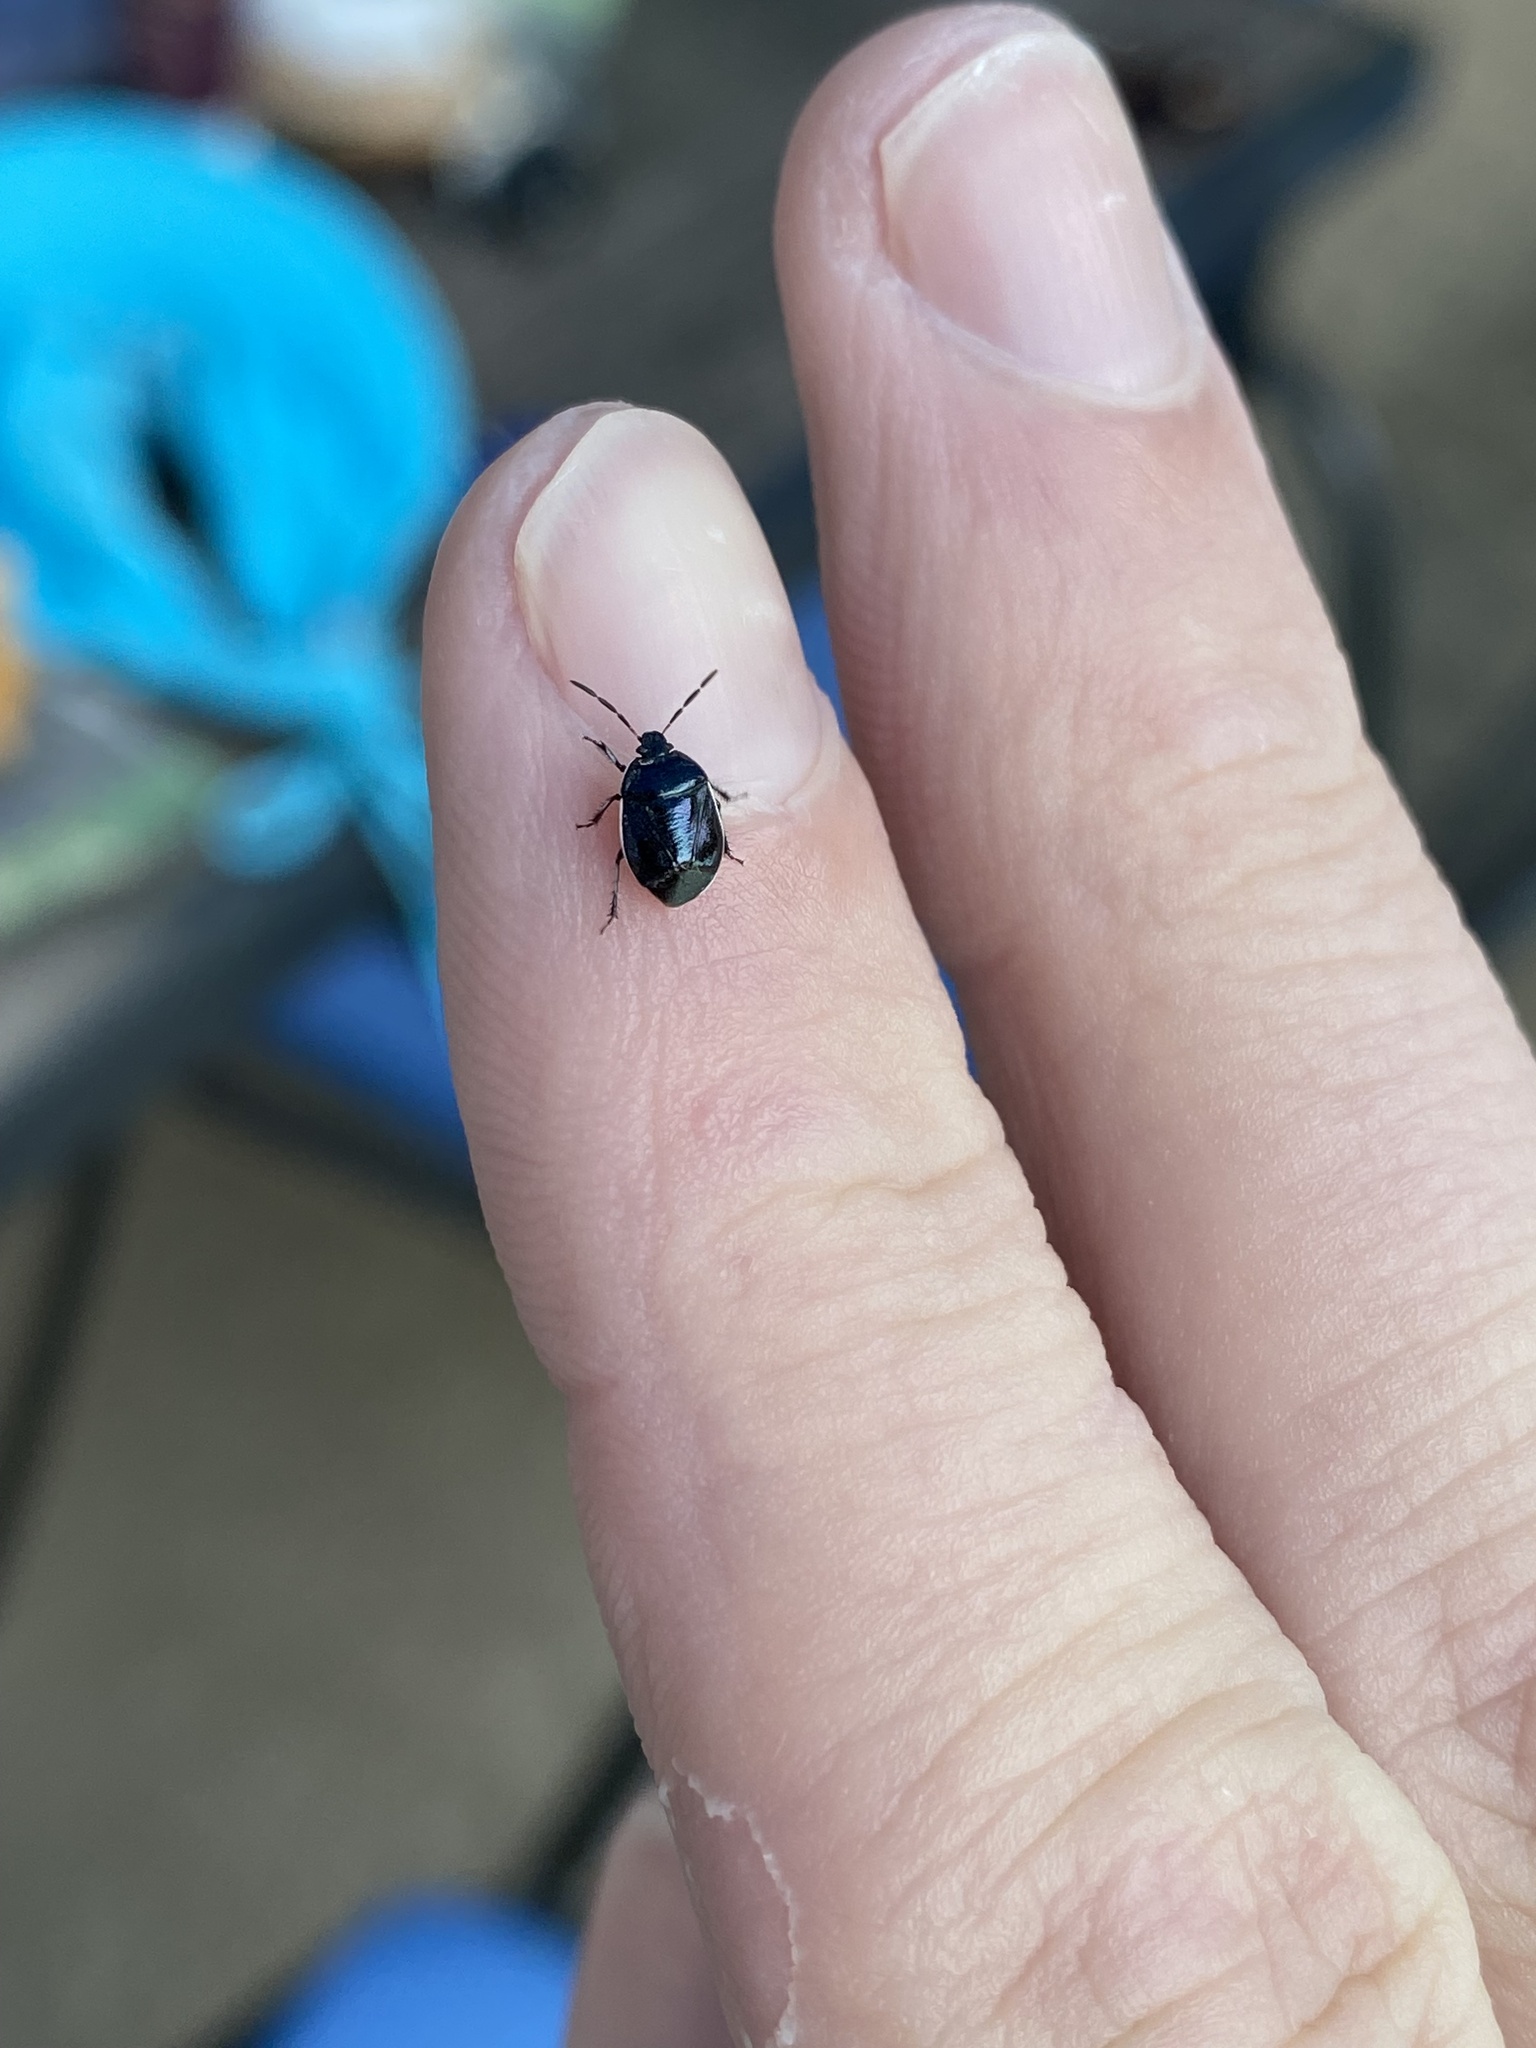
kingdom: Animalia
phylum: Arthropoda
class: Insecta
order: Hemiptera
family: Cydnidae
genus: Sehirus
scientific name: Sehirus cinctus
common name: White-margined burrower bug
